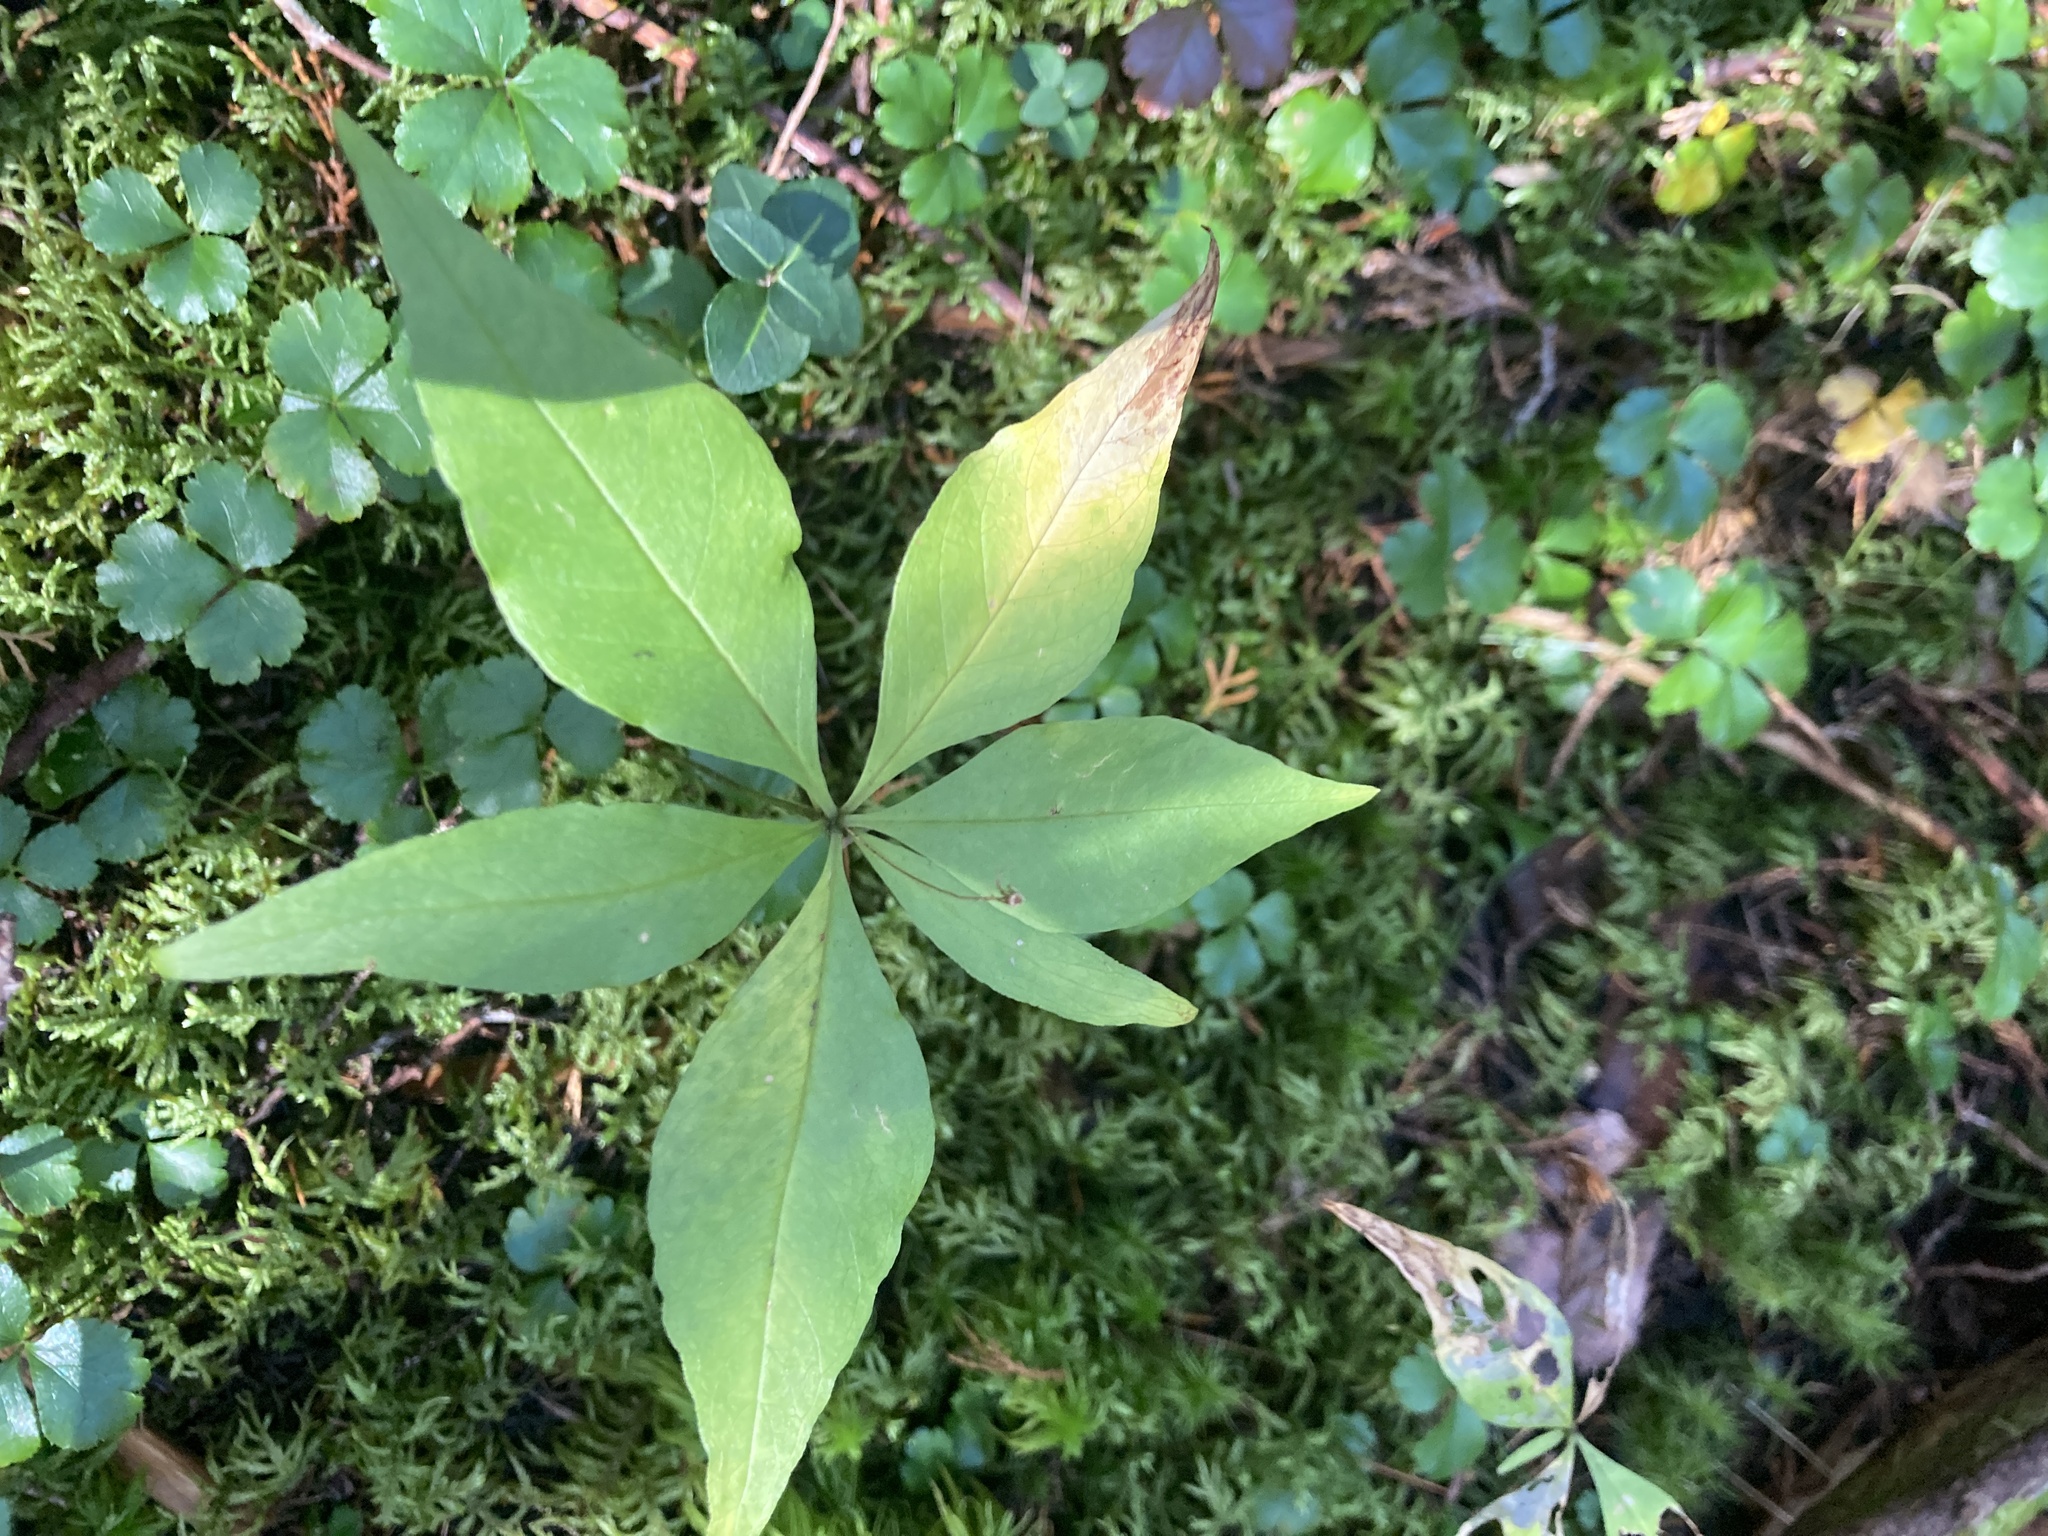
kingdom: Plantae
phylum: Tracheophyta
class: Magnoliopsida
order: Ericales
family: Primulaceae
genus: Lysimachia
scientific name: Lysimachia borealis
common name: American starflower
